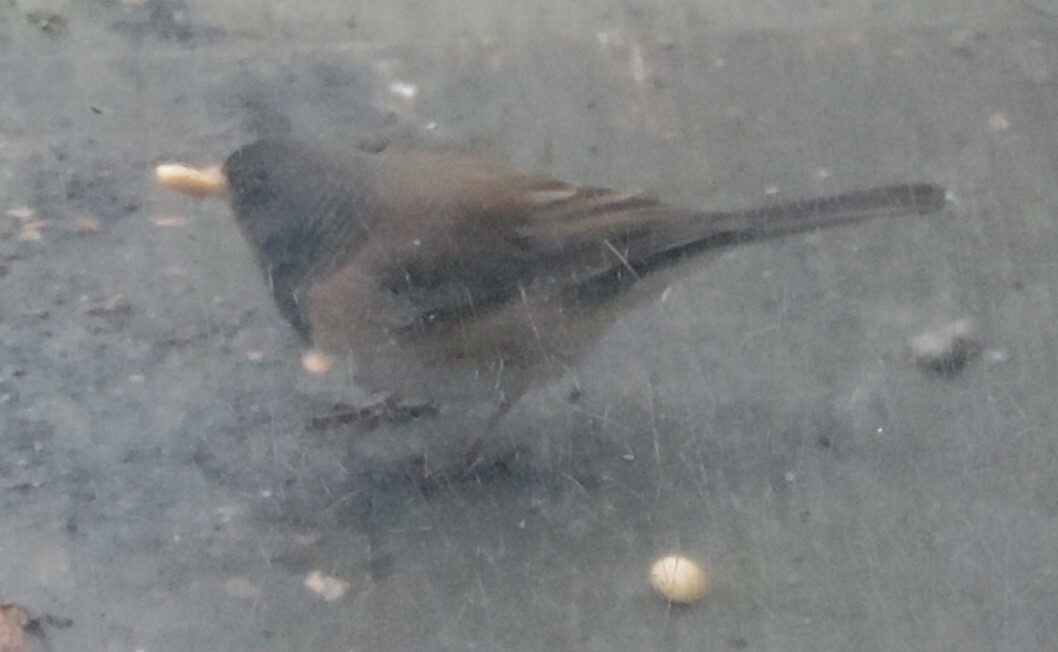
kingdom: Animalia
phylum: Chordata
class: Aves
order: Passeriformes
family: Passerellidae
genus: Junco
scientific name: Junco hyemalis
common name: Dark-eyed junco
